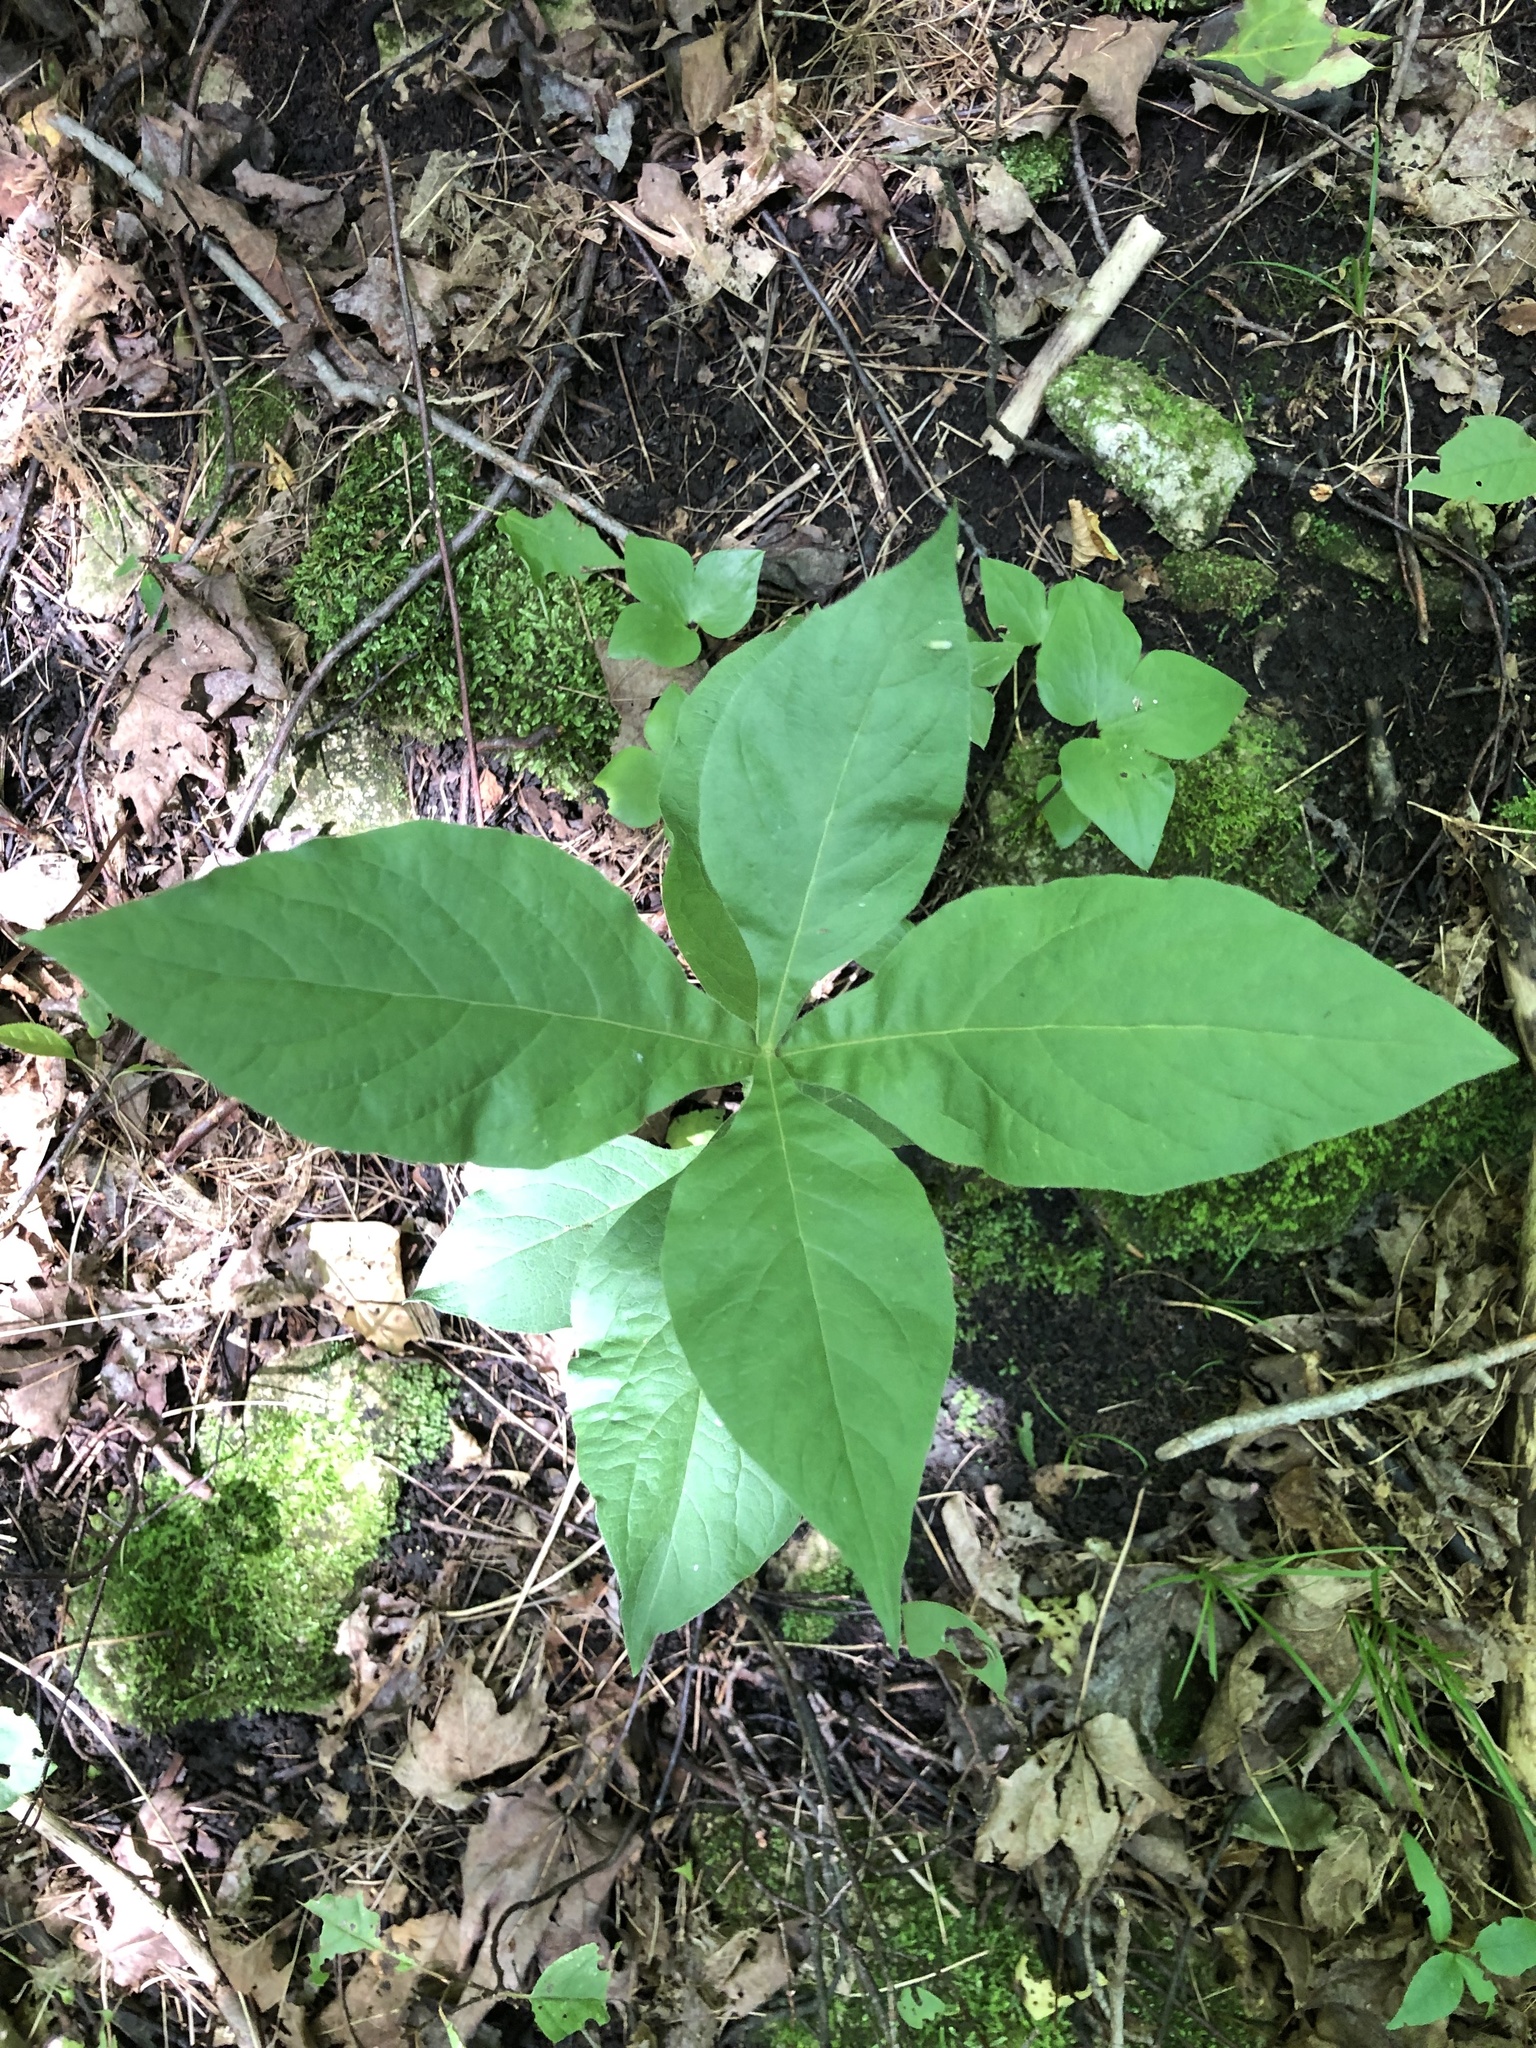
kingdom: Plantae
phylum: Tracheophyta
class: Magnoliopsida
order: Dipsacales
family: Caprifoliaceae
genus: Triosteum
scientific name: Triosteum aurantiacum
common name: Coffee tinker's-weed
